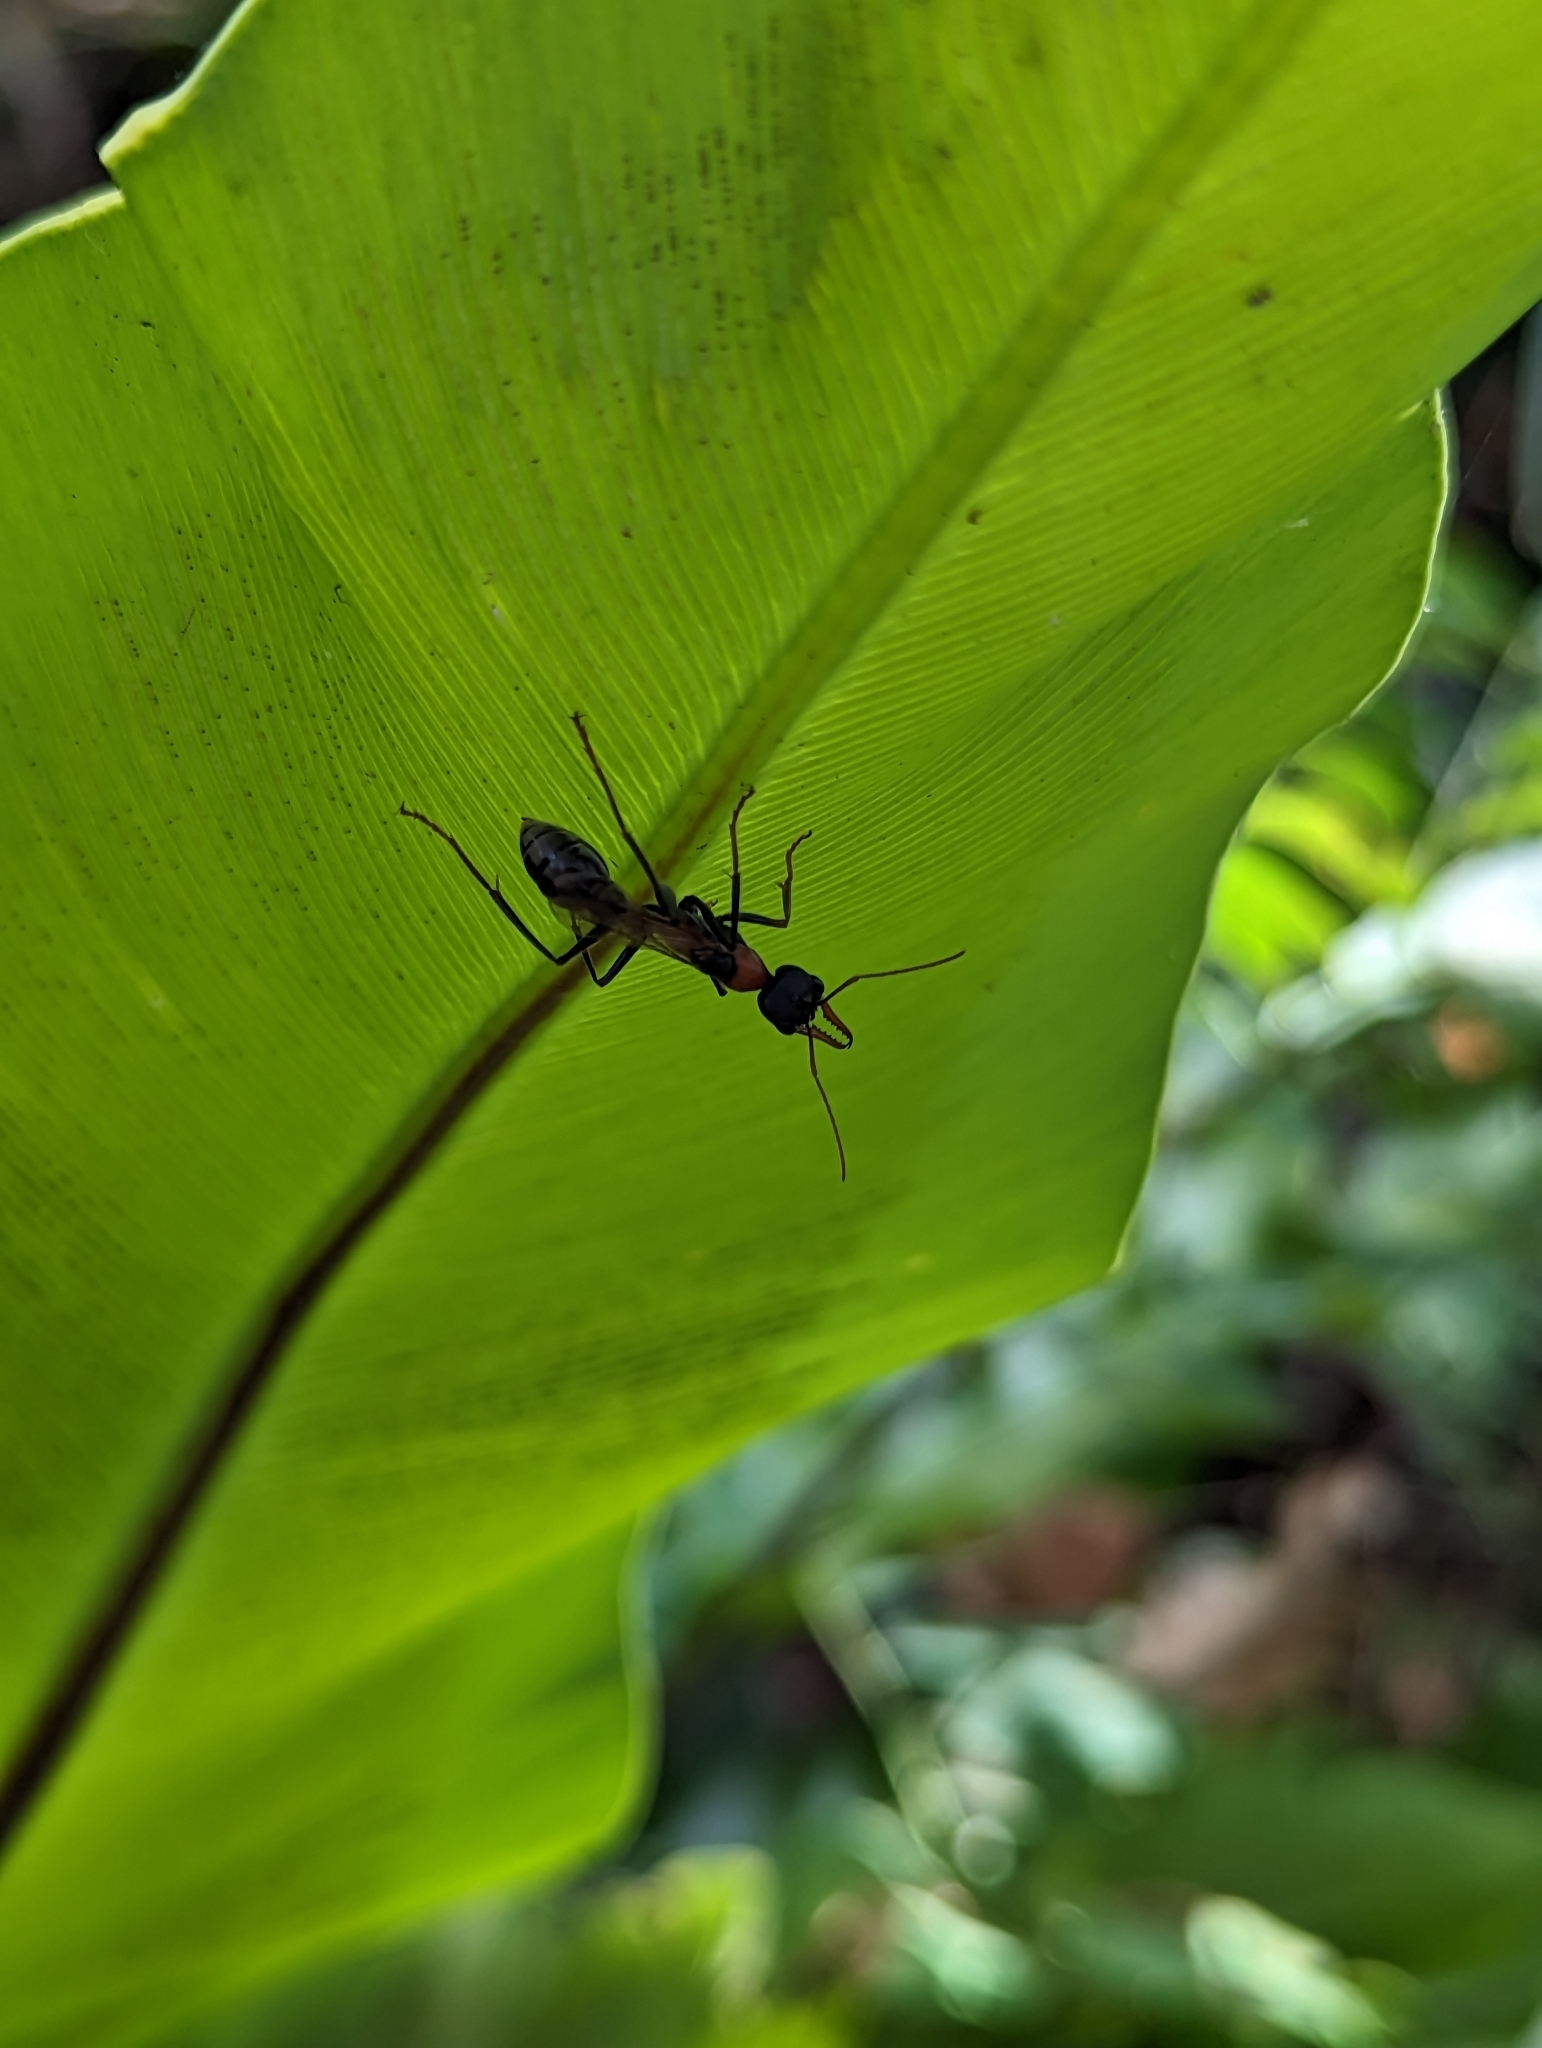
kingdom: Animalia
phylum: Arthropoda
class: Insecta
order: Hymenoptera
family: Formicidae
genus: Myrmecia
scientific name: Myrmecia nigrocincta
